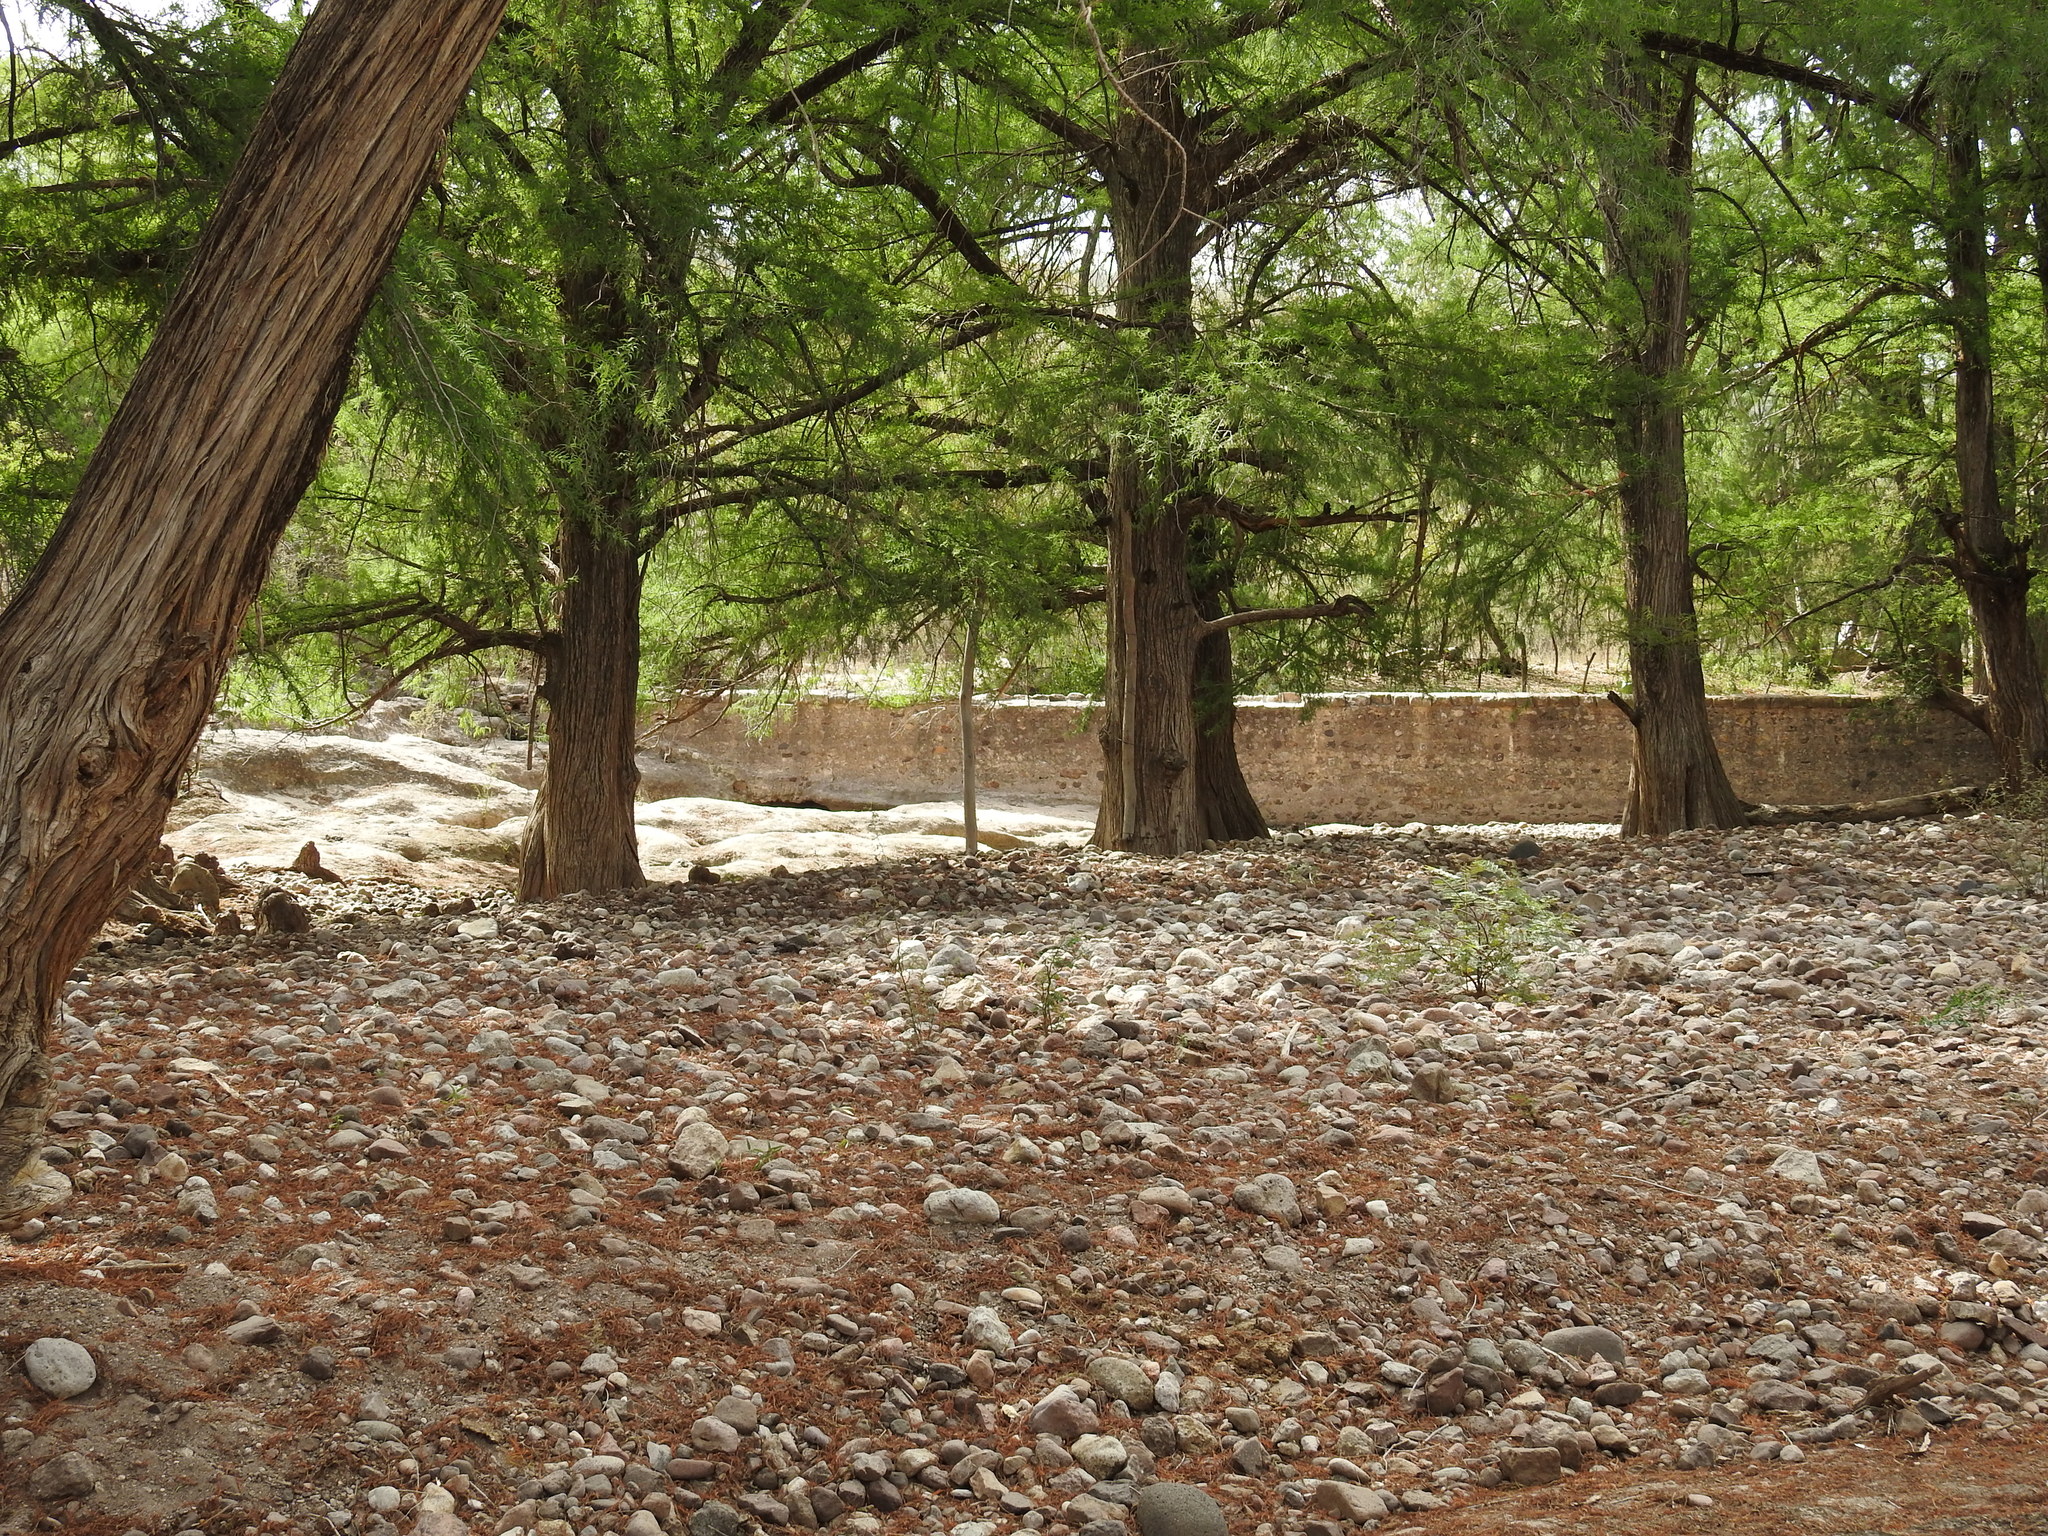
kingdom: Plantae
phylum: Tracheophyta
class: Pinopsida
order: Pinales
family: Cupressaceae
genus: Taxodium
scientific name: Taxodium mucronatum
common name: Montezume bald cypress
